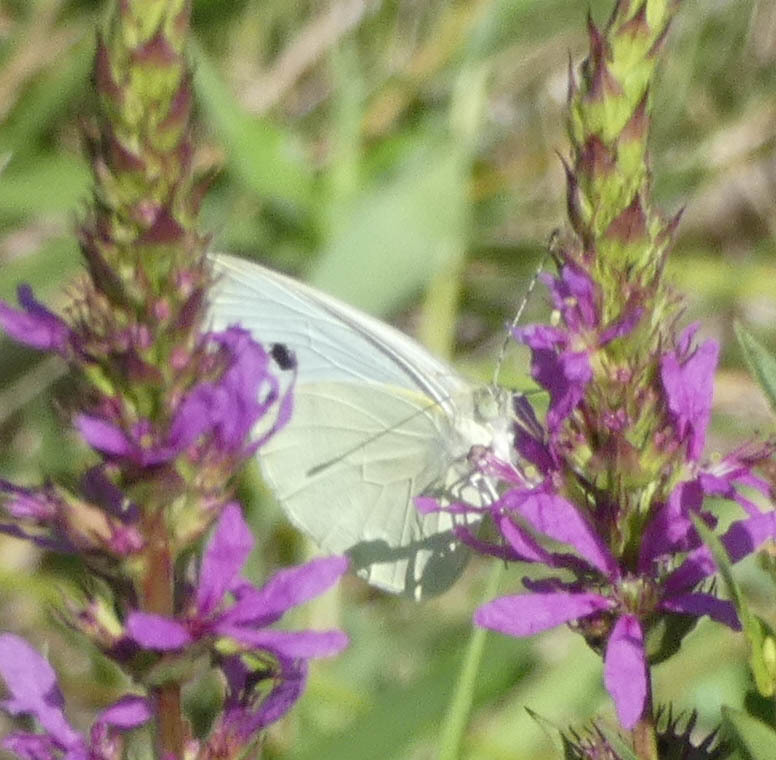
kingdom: Animalia
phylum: Arthropoda
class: Insecta
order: Lepidoptera
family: Pieridae
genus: Pieris
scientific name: Pieris rapae
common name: Small white
